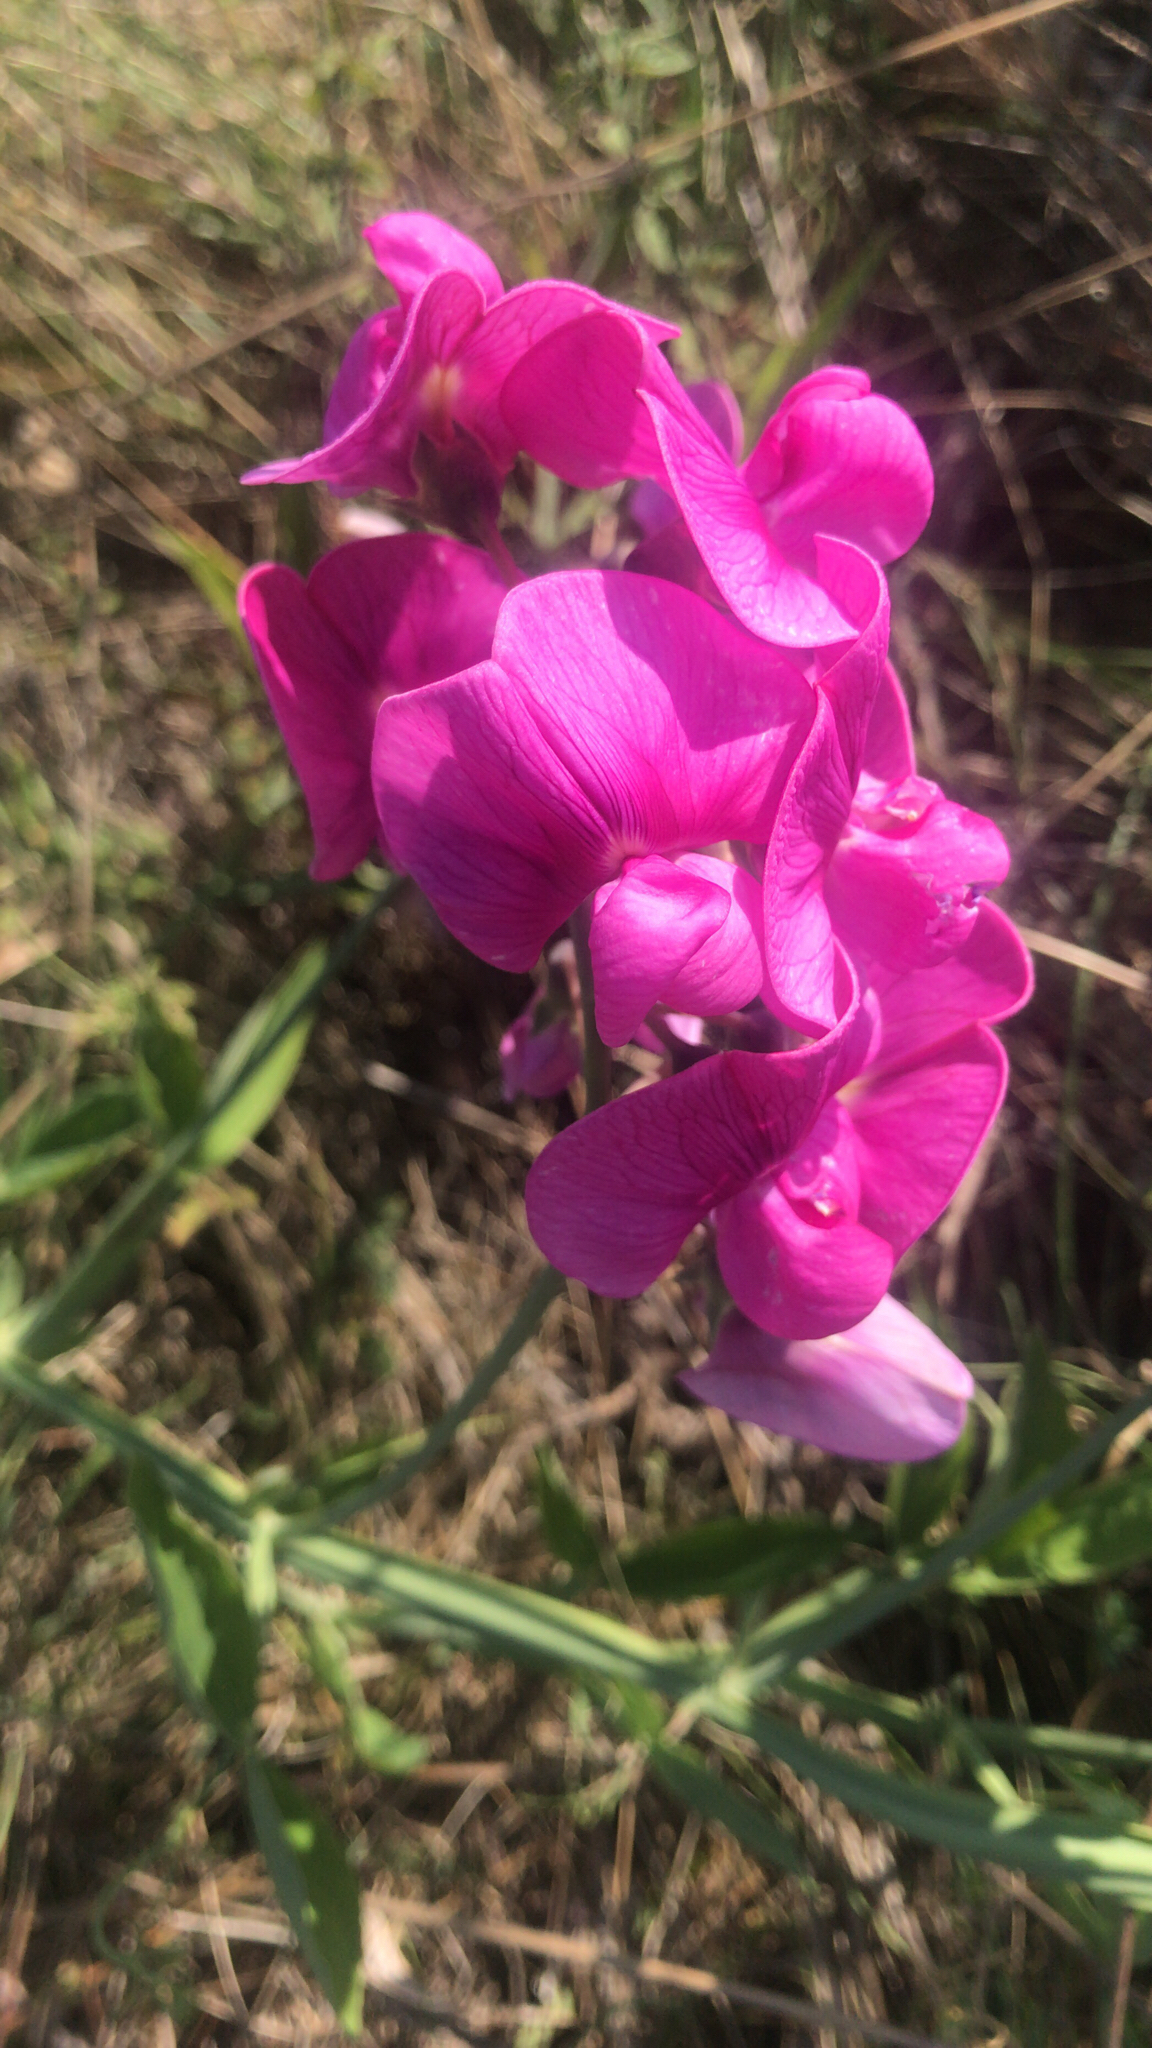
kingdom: Plantae
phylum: Tracheophyta
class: Magnoliopsida
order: Fabales
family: Fabaceae
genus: Lathyrus
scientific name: Lathyrus latifolius
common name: Perennial pea
